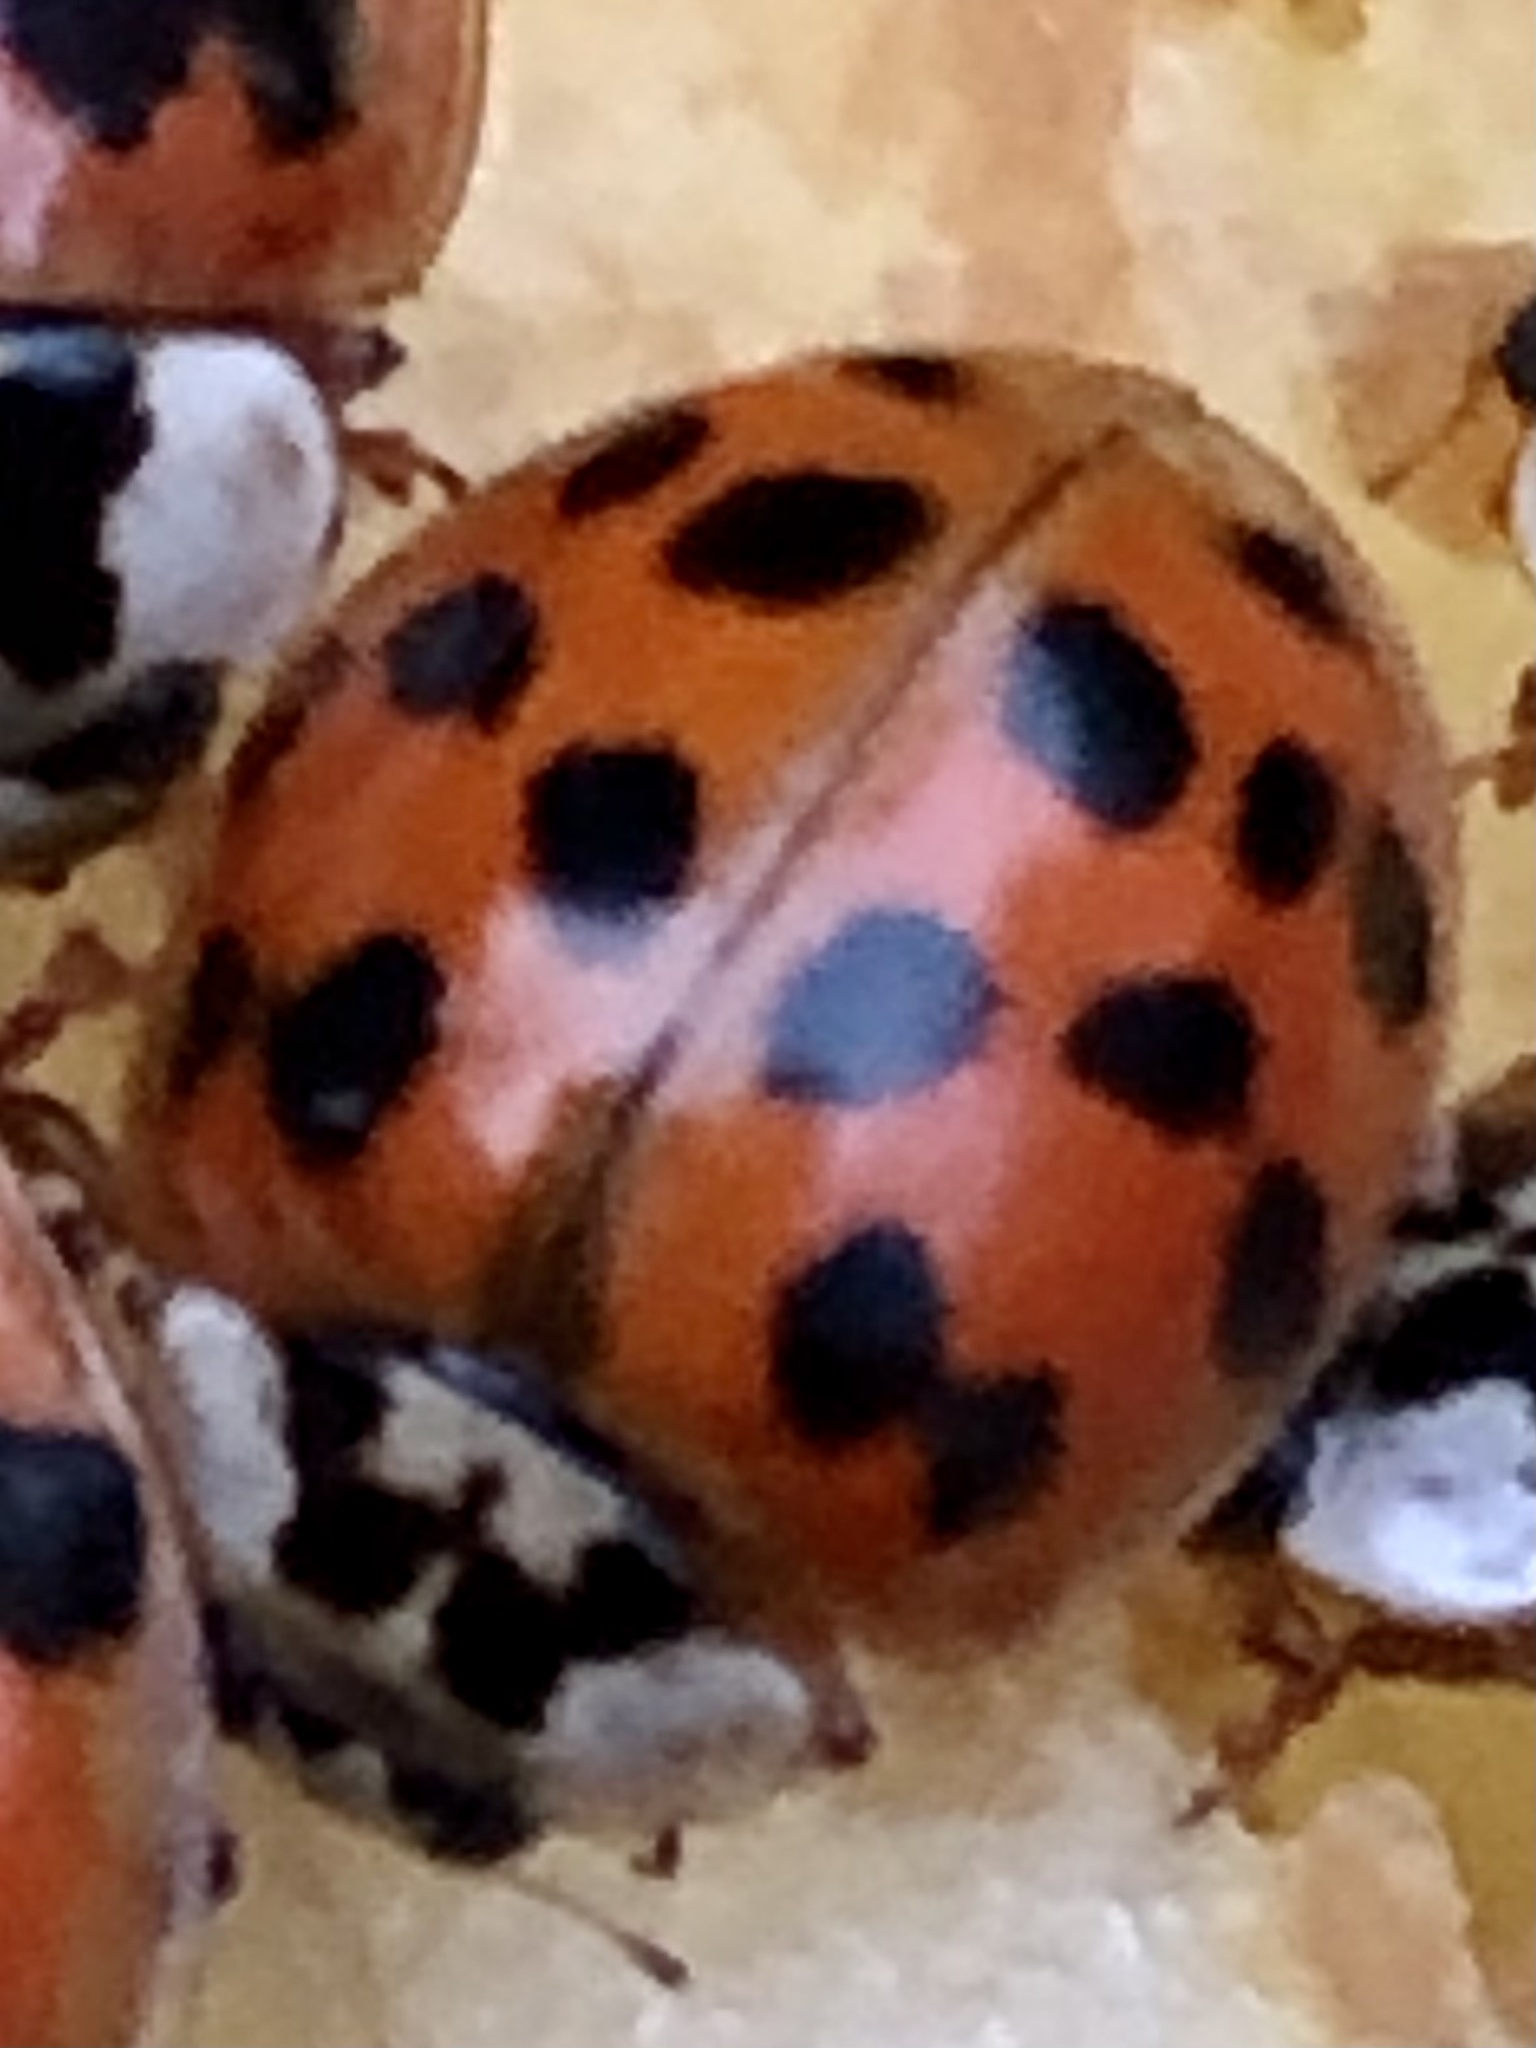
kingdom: Animalia
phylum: Arthropoda
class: Insecta
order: Coleoptera
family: Coccinellidae
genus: Harmonia
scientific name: Harmonia axyridis
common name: Harlequin ladybird
